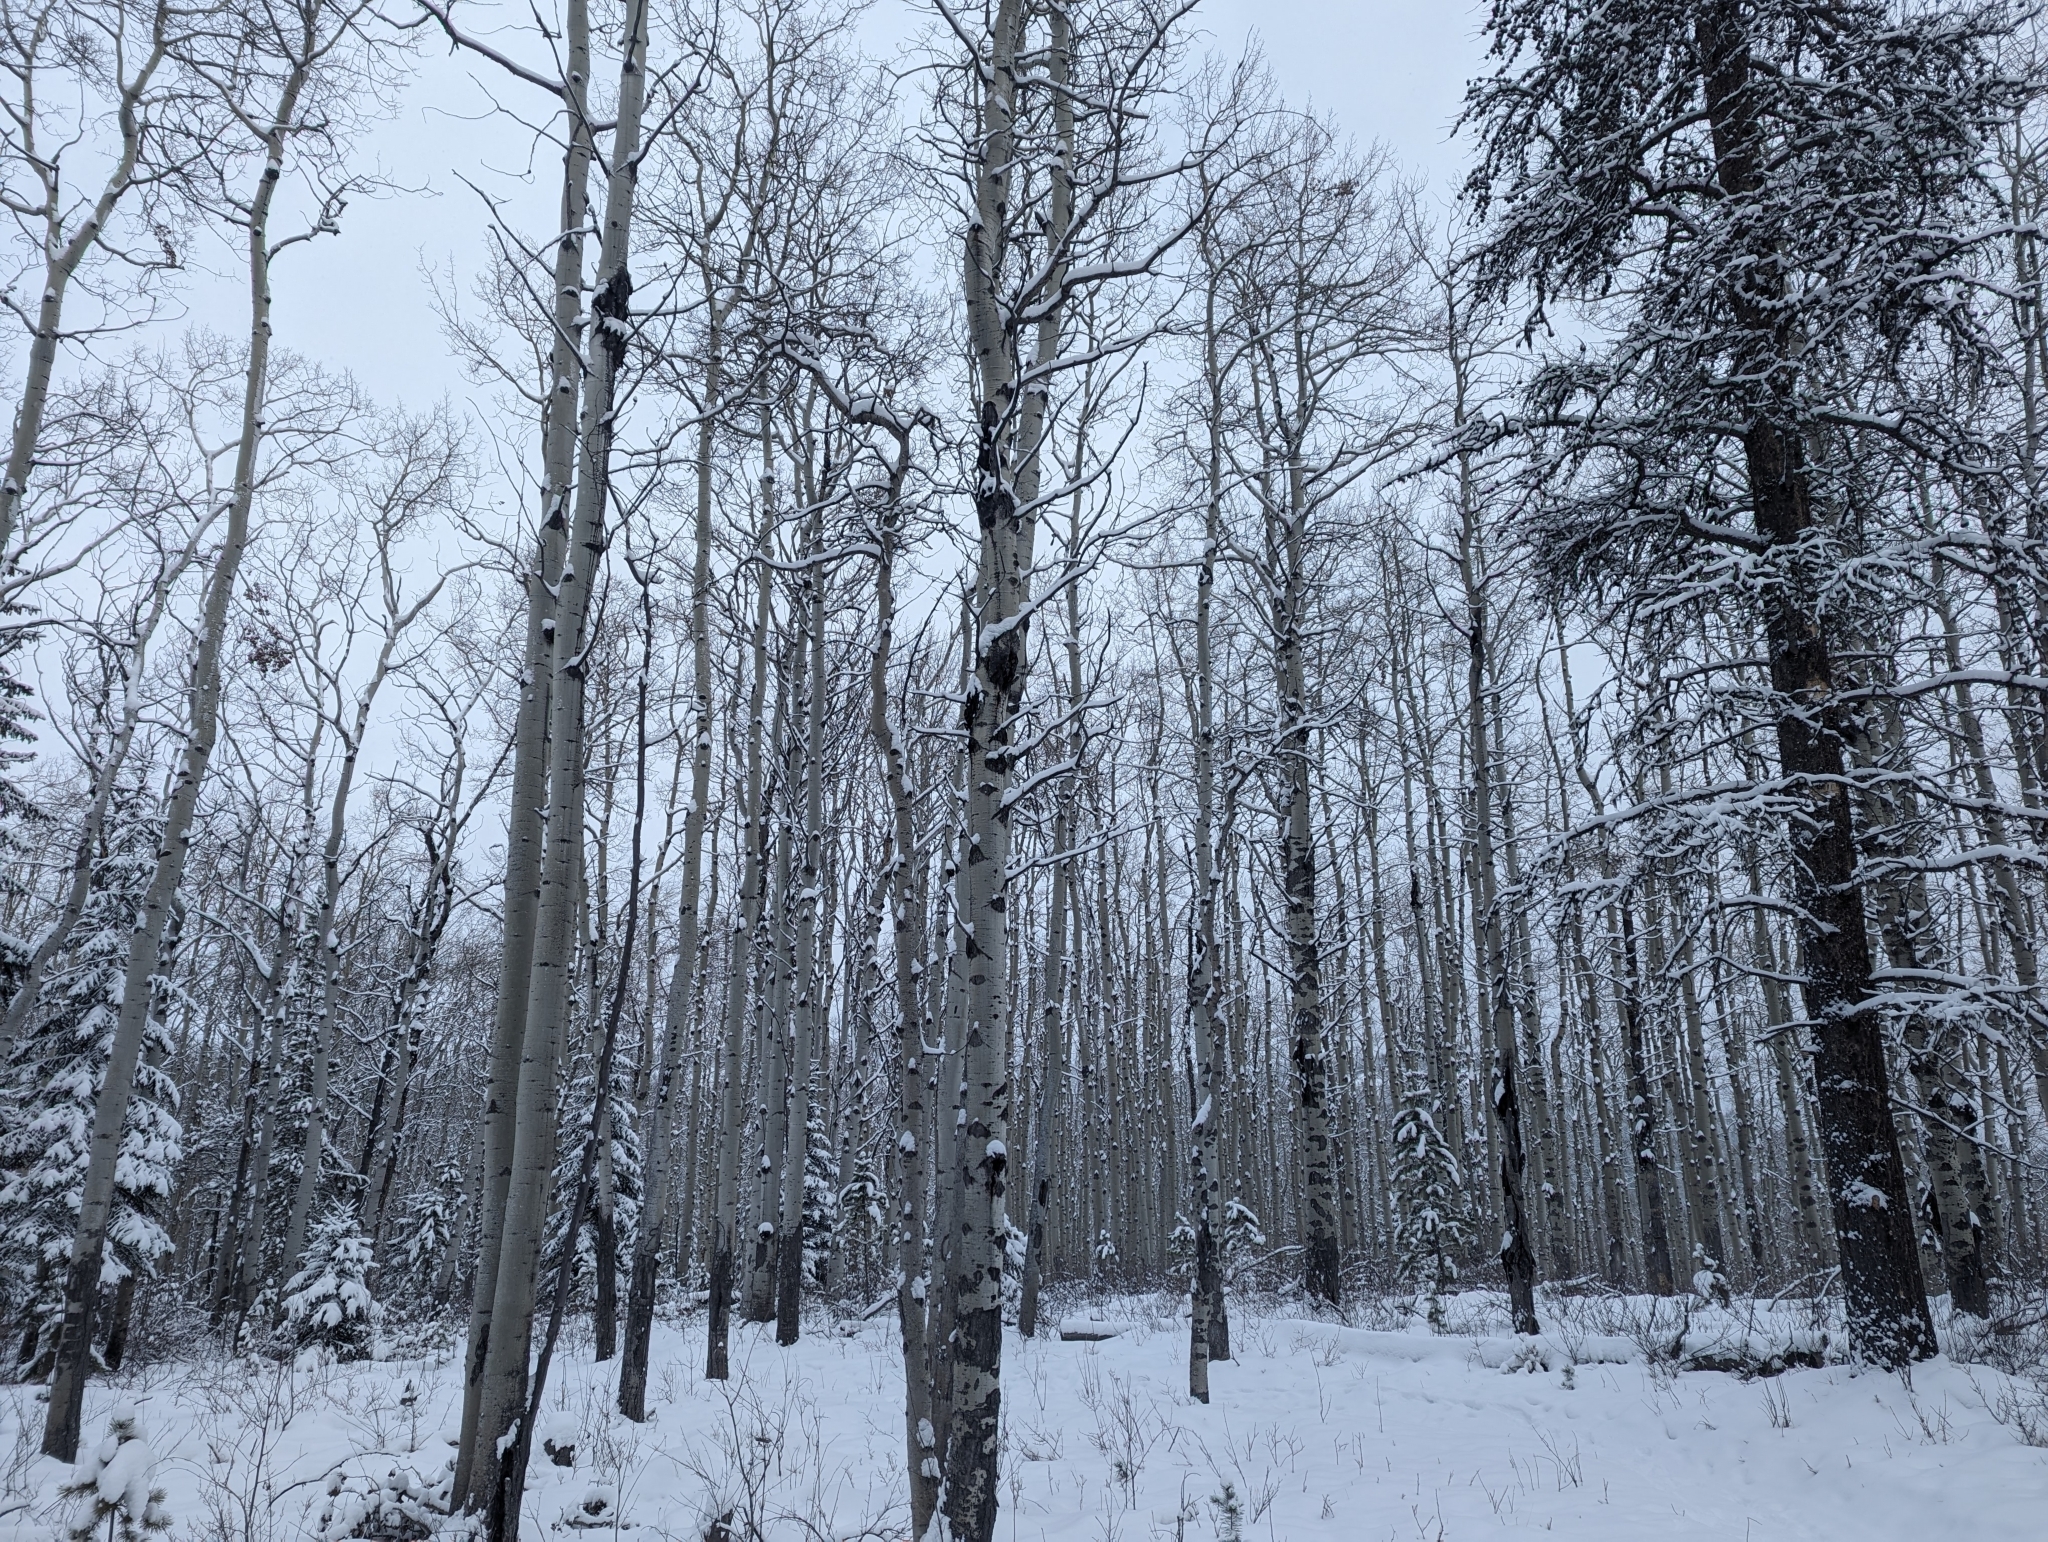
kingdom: Plantae
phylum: Tracheophyta
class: Magnoliopsida
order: Malpighiales
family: Salicaceae
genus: Populus
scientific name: Populus tremuloides
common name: Quaking aspen
